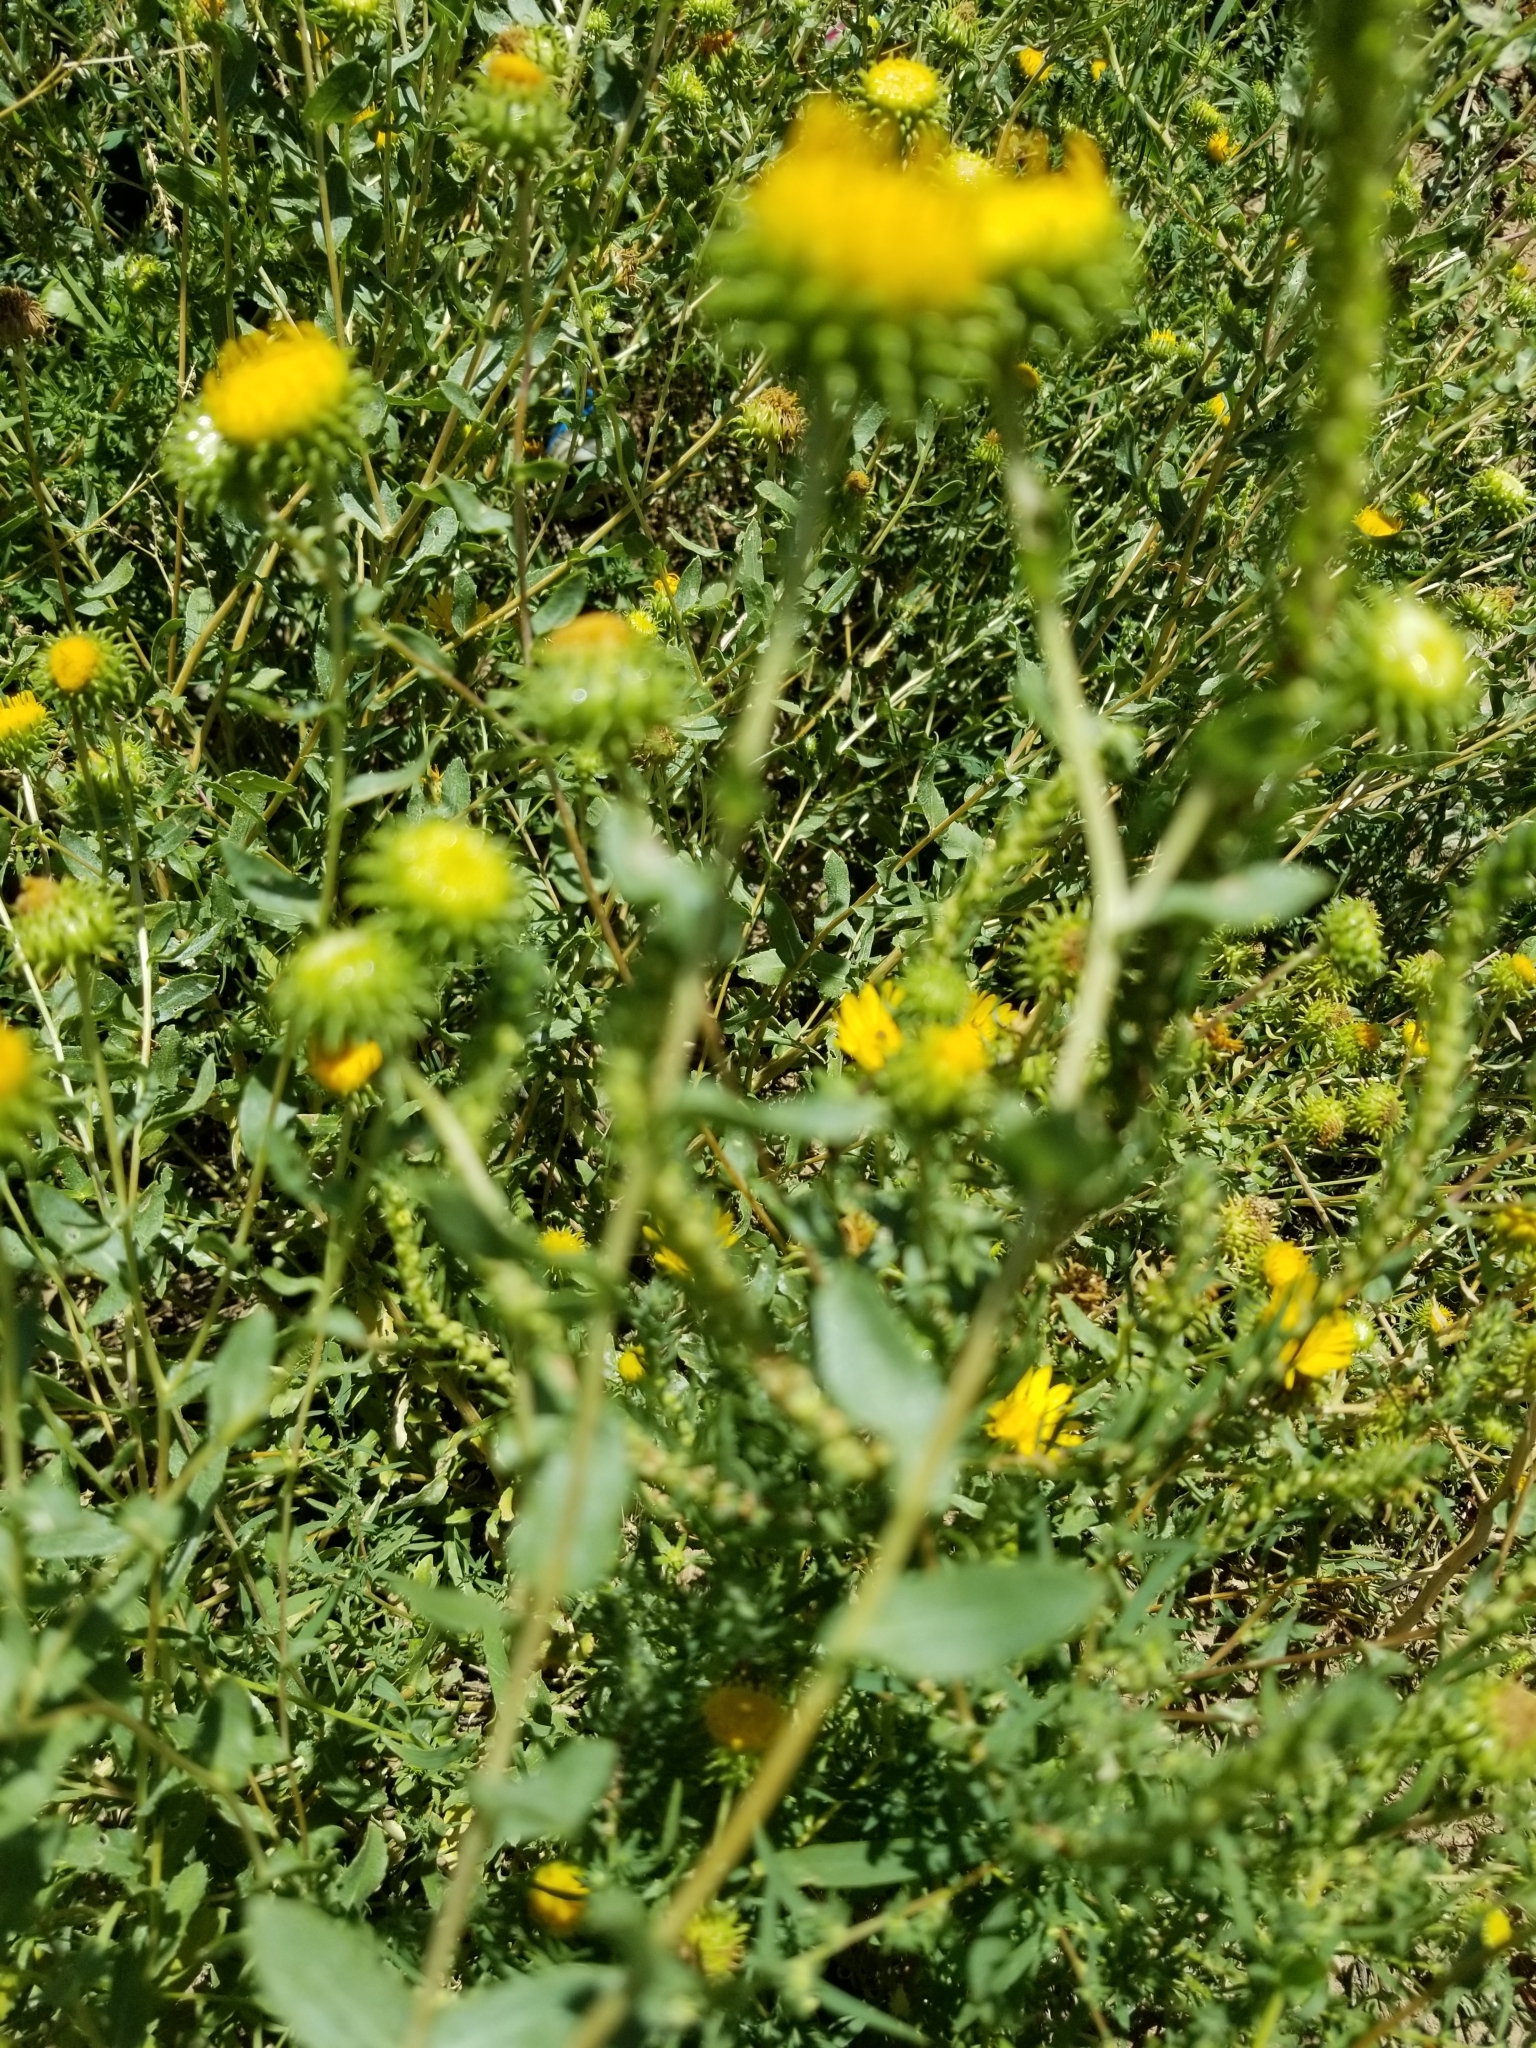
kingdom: Plantae
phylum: Tracheophyta
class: Magnoliopsida
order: Asterales
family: Asteraceae
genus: Grindelia
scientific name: Grindelia squarrosa
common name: Curly-cup gumweed
